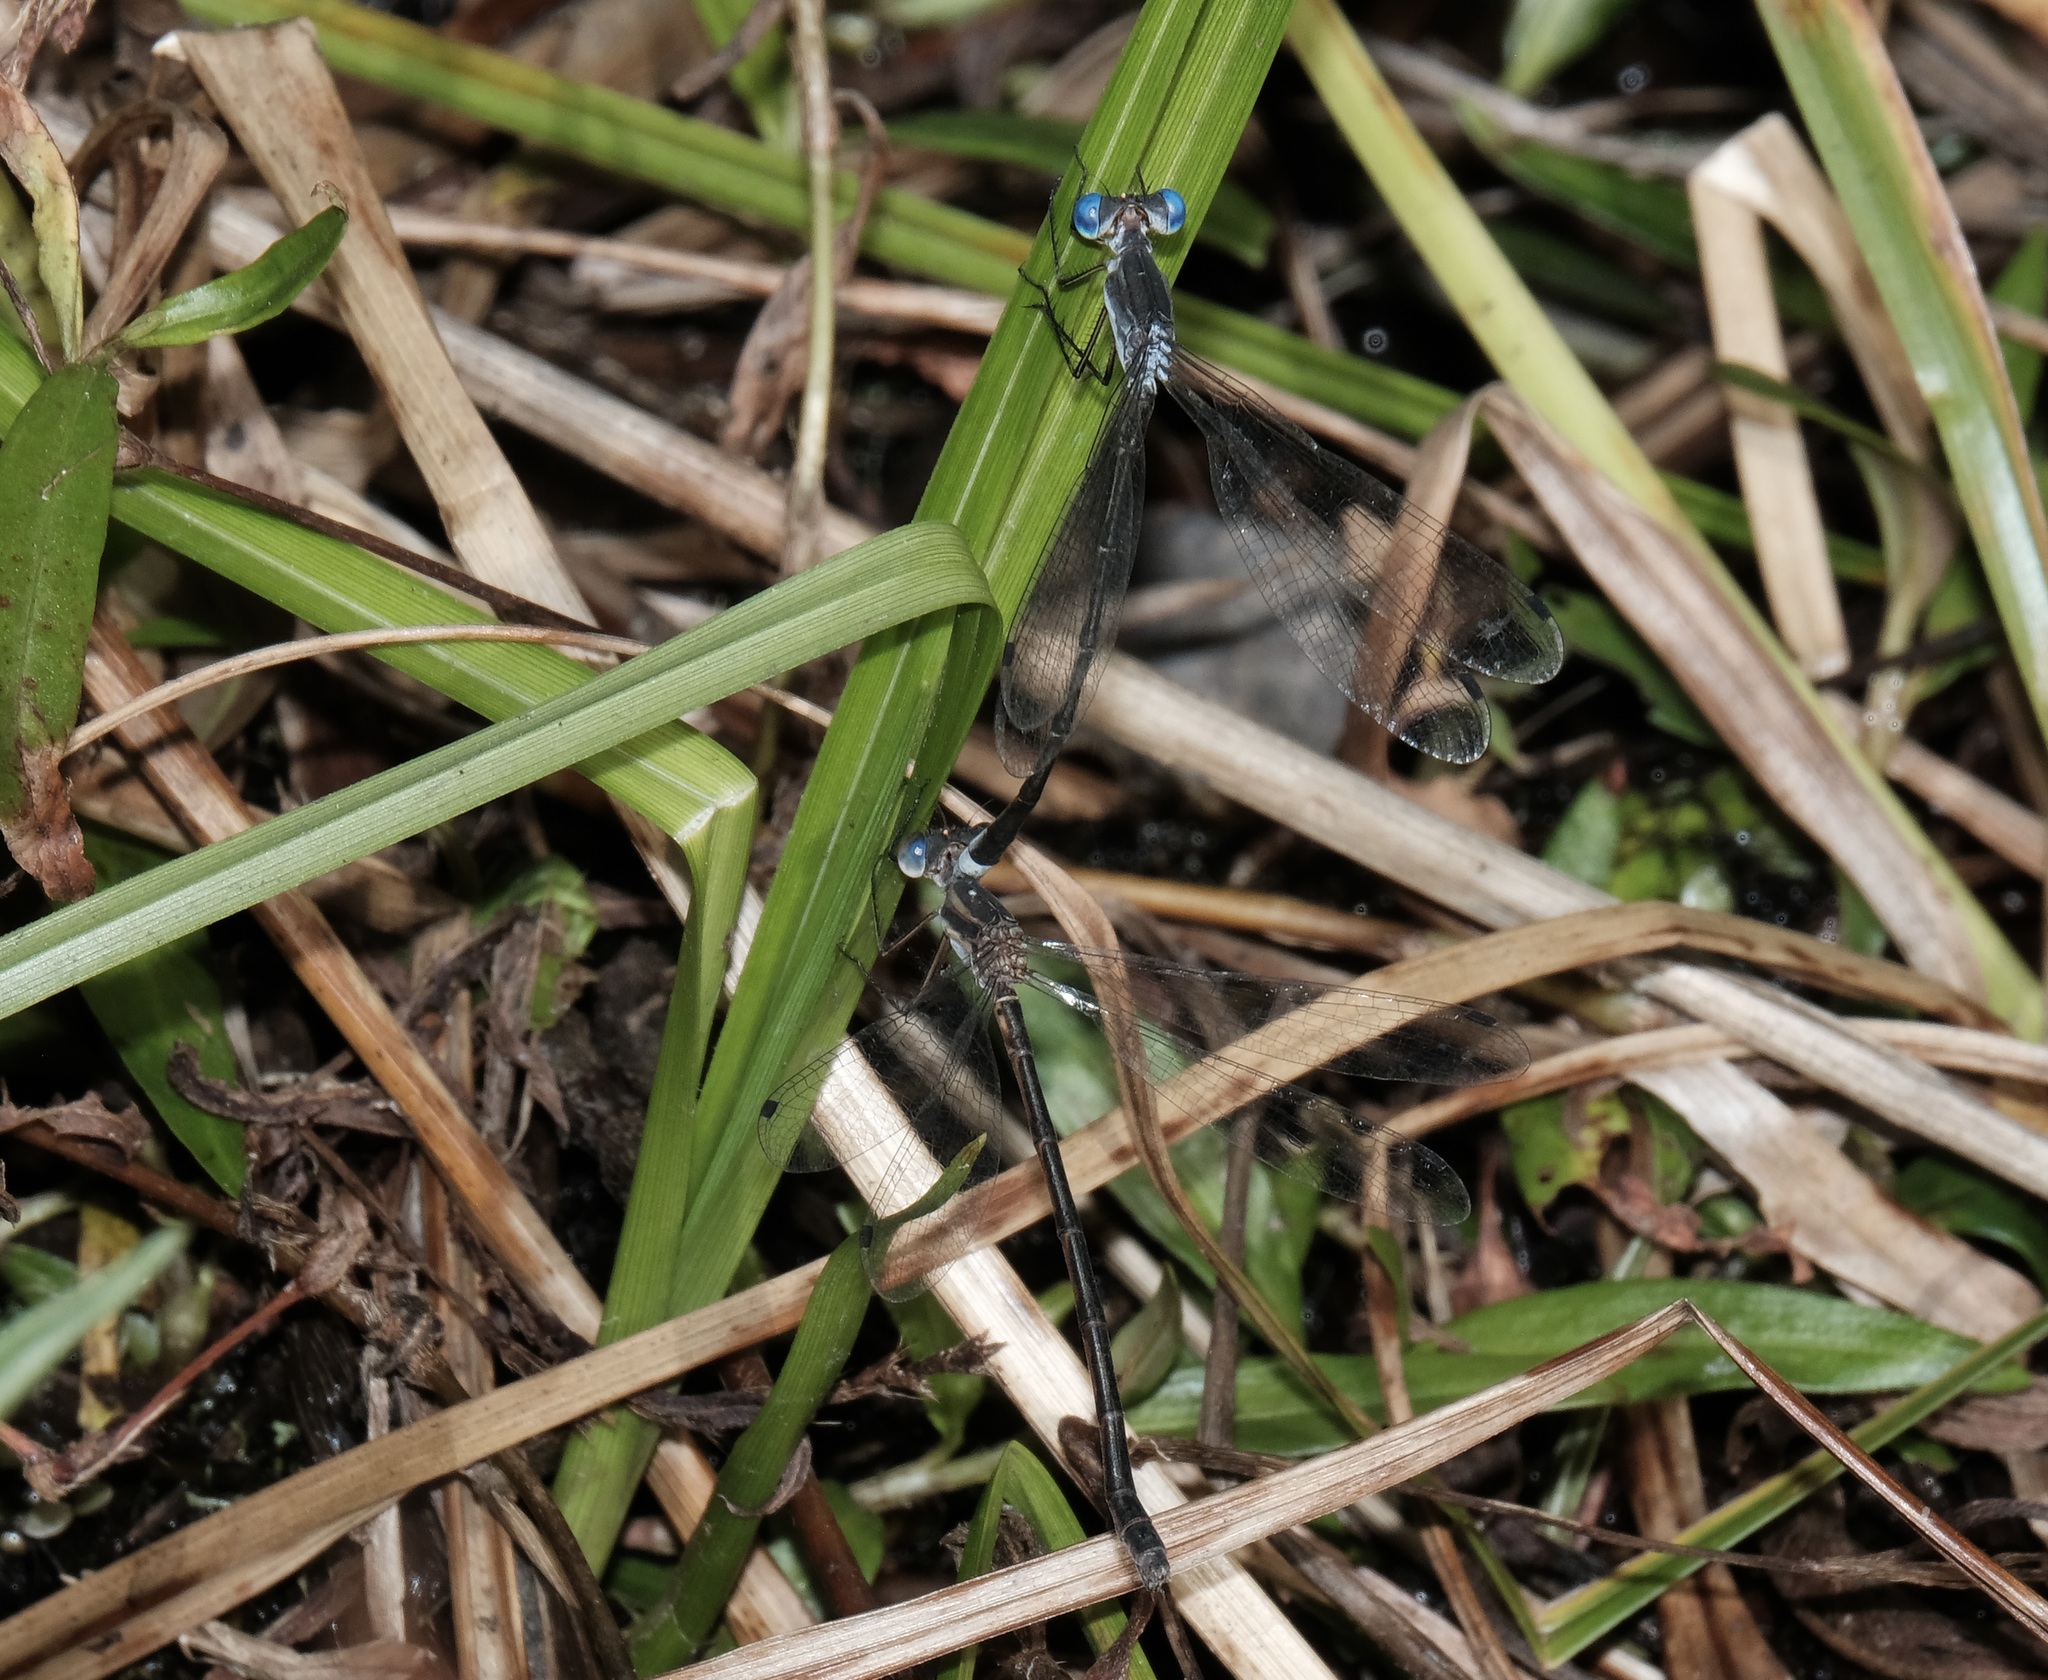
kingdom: Animalia
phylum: Arthropoda
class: Insecta
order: Odonata
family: Lestidae
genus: Lestes
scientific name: Lestes australis
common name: Southern spreadwing
